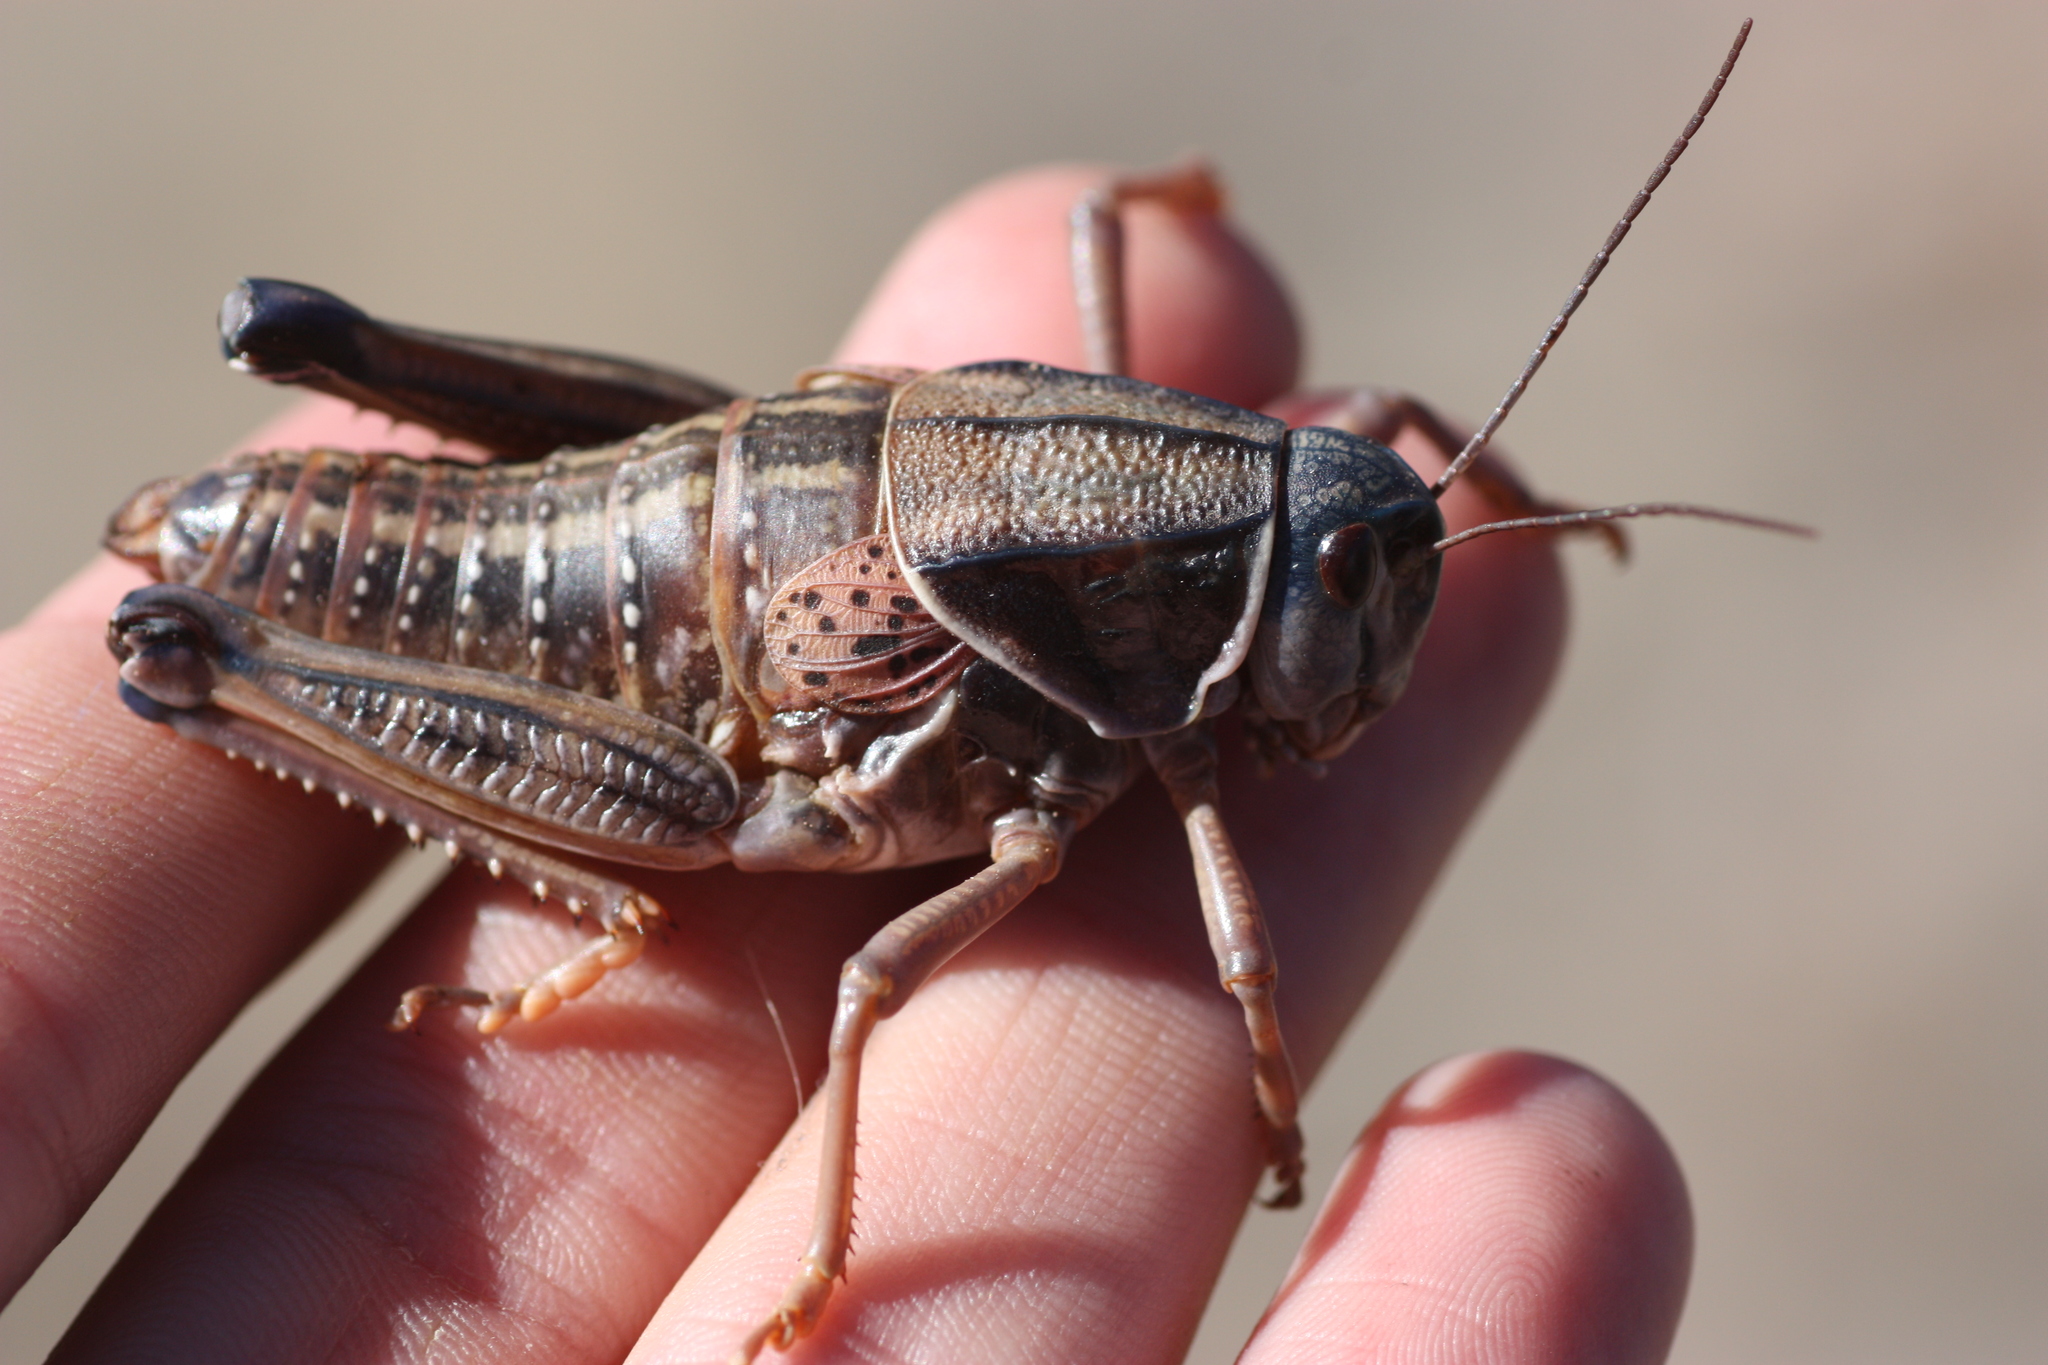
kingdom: Animalia
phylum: Arthropoda
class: Insecta
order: Orthoptera
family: Romaleidae
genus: Brachystola
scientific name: Brachystola magna
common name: Plains lubber grasshopper
